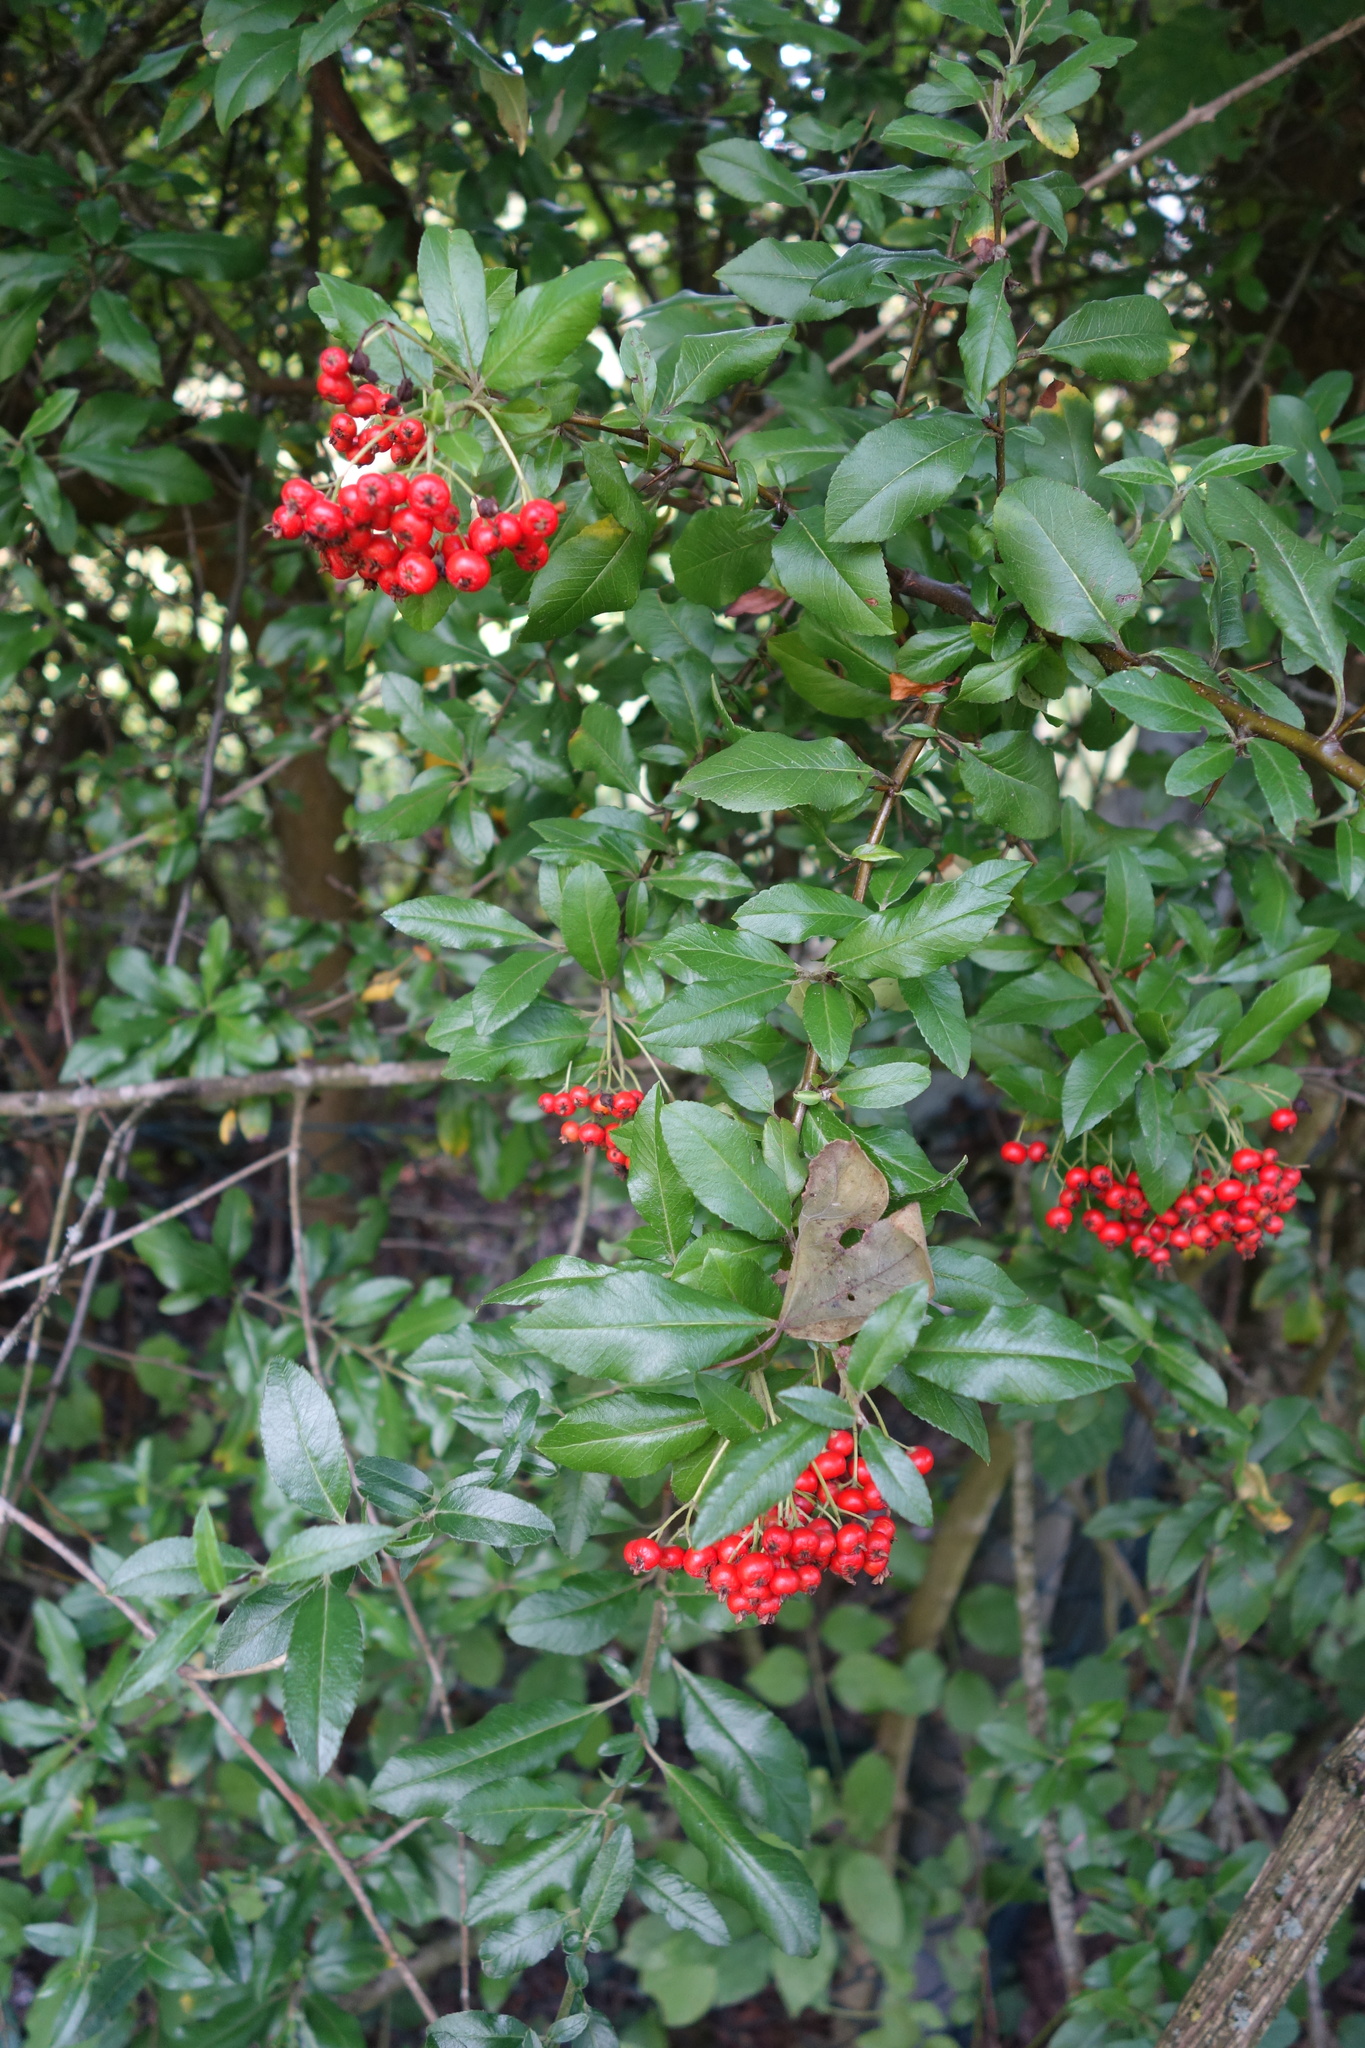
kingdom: Plantae
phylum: Tracheophyta
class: Magnoliopsida
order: Rosales
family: Rosaceae
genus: Pyracantha
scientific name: Pyracantha coccinea
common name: Firethorn
